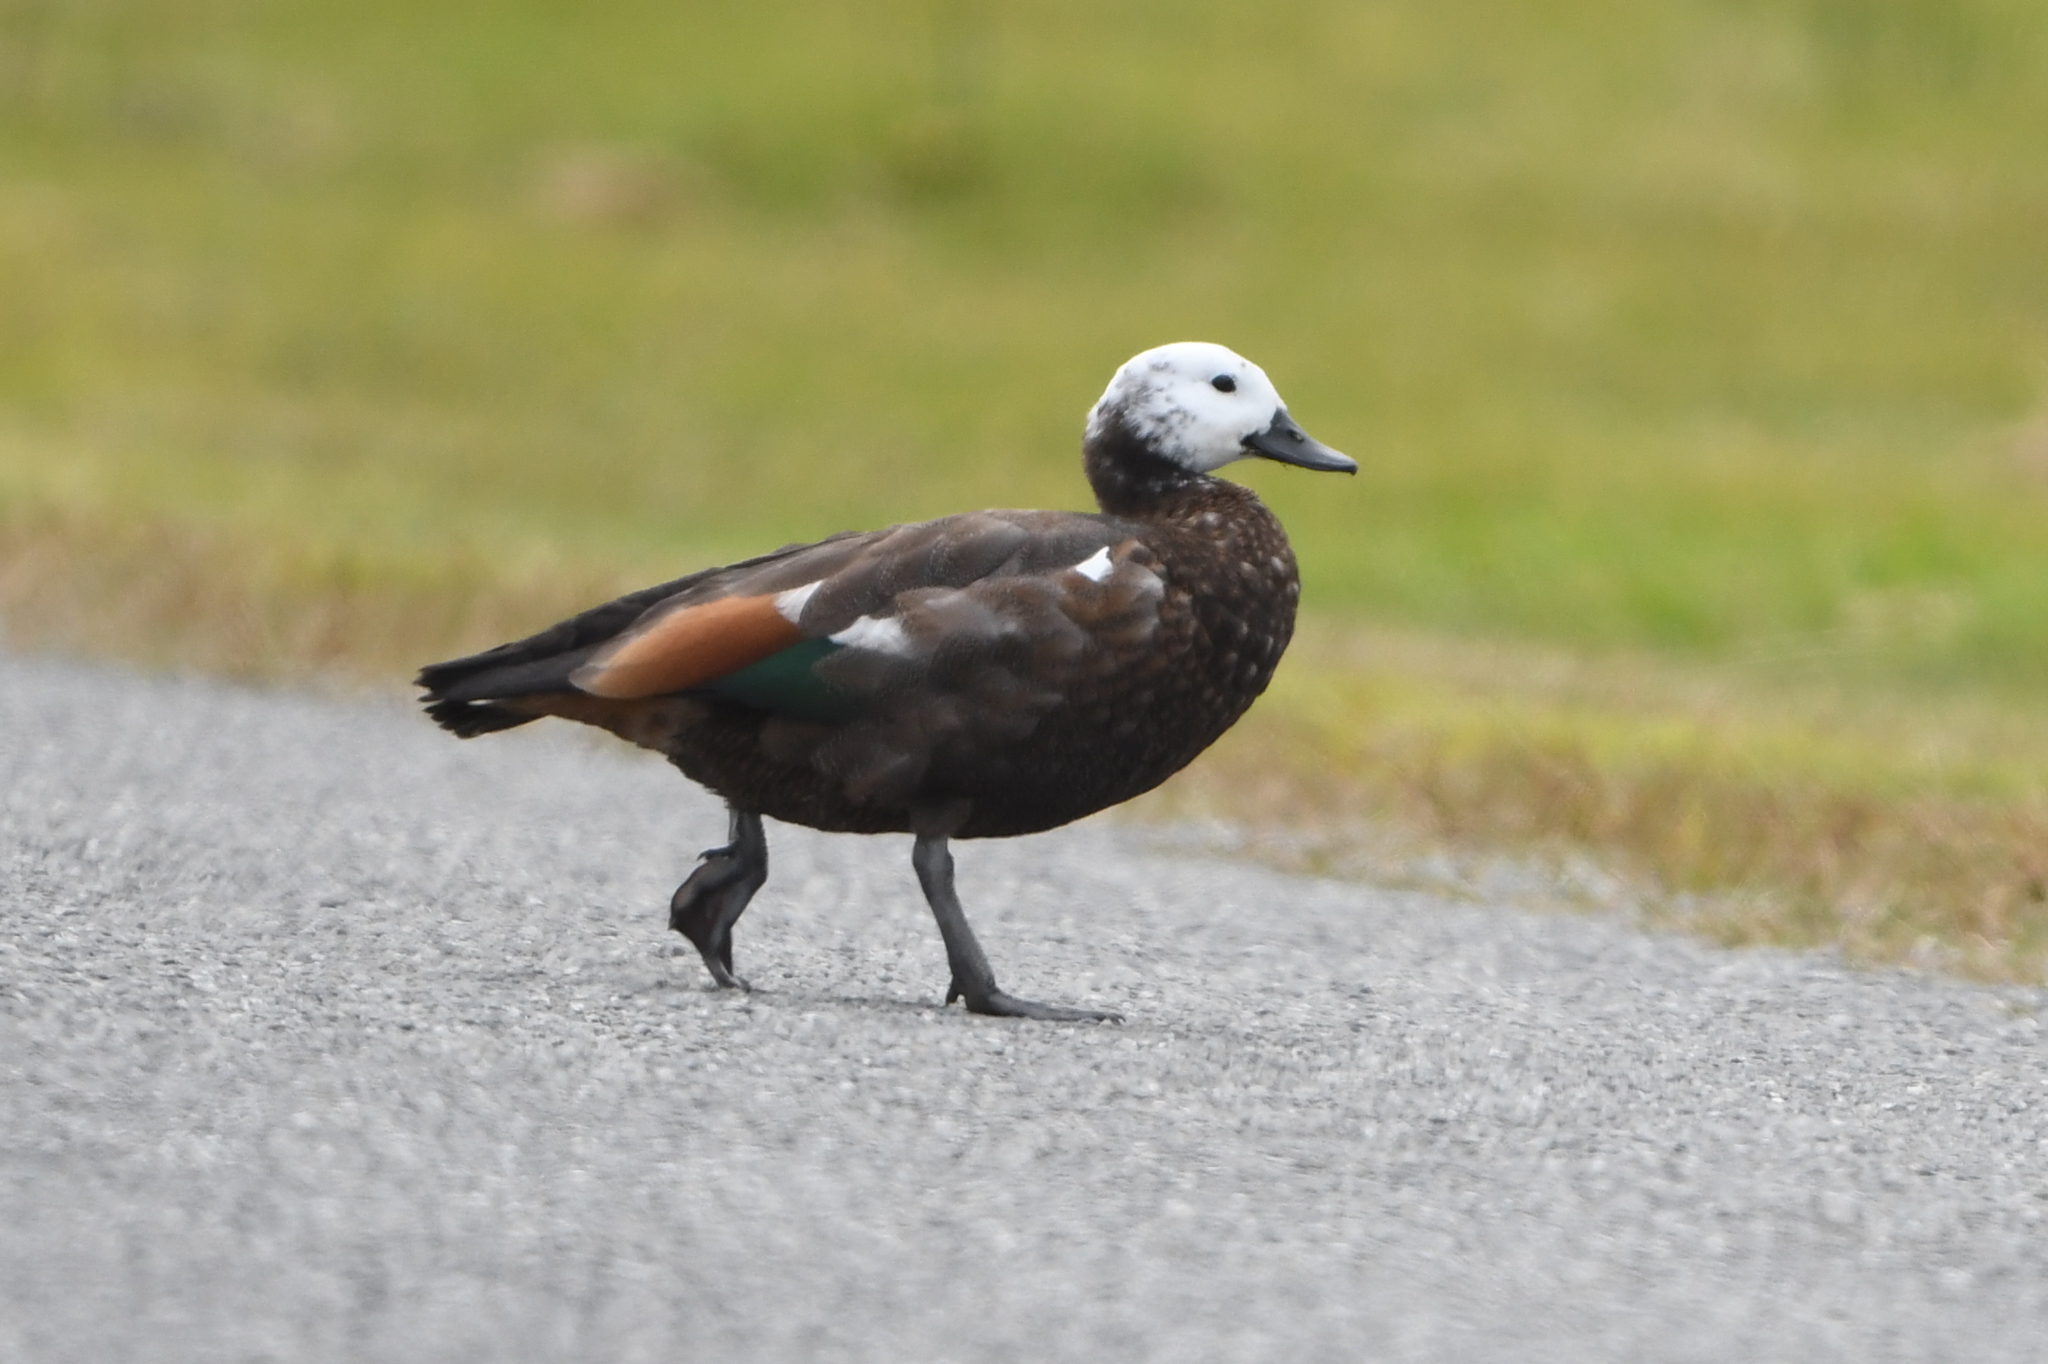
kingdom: Animalia
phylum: Chordata
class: Aves
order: Anseriformes
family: Anatidae
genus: Tadorna
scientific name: Tadorna variegata
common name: Paradise shelduck
